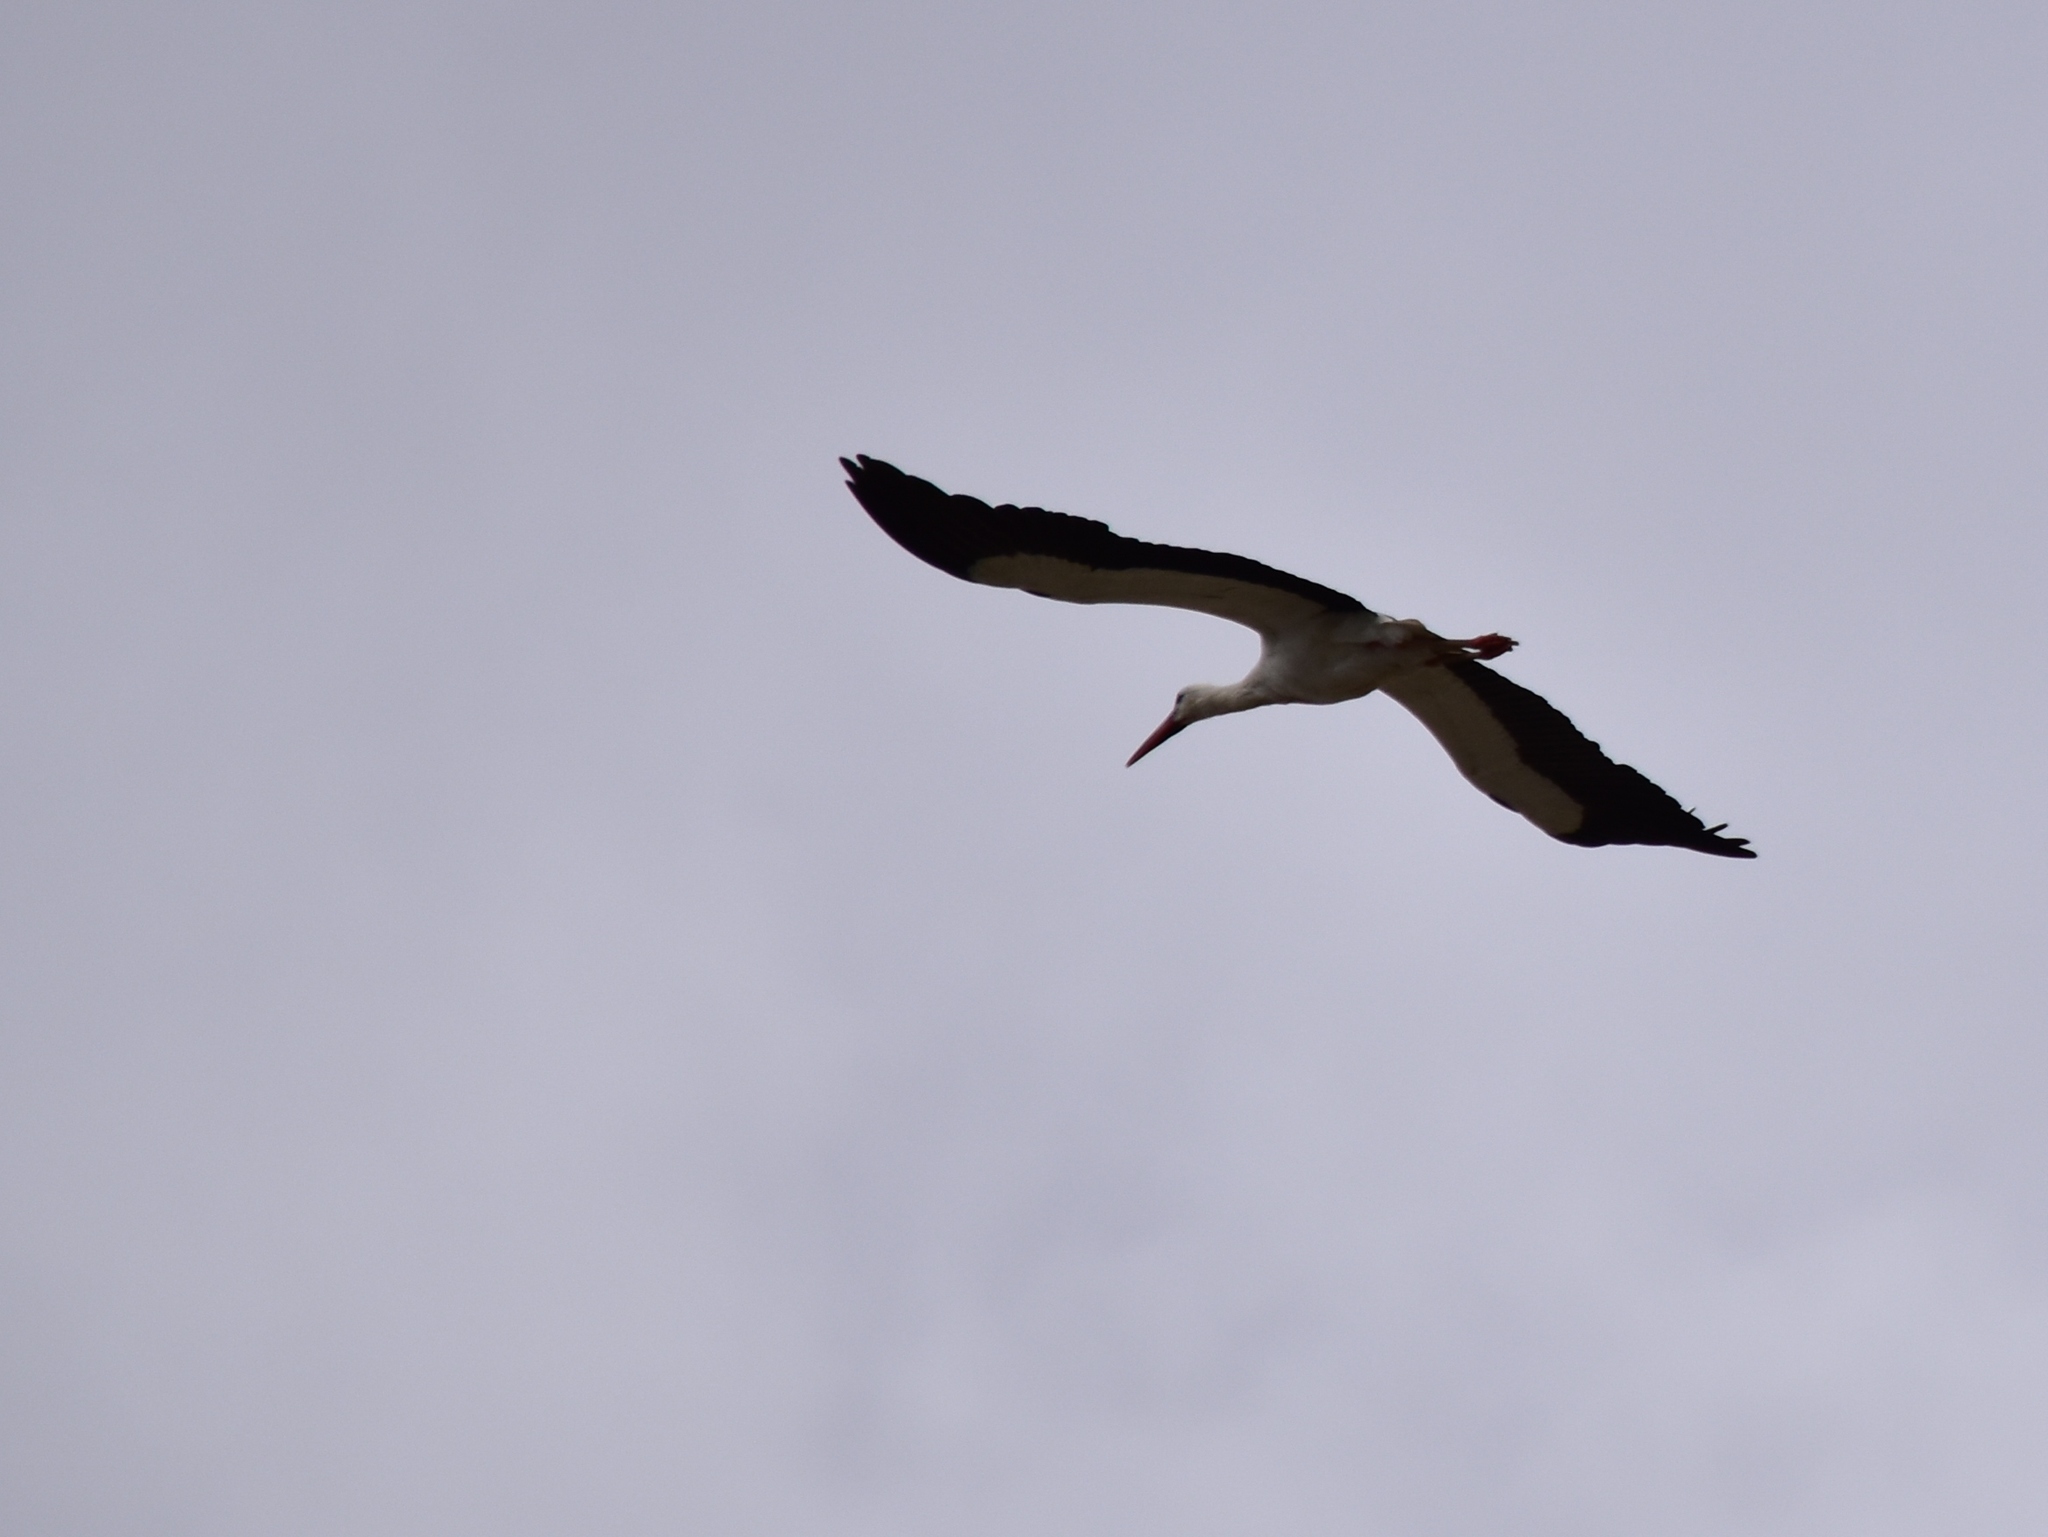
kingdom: Animalia
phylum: Chordata
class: Aves
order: Ciconiiformes
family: Ciconiidae
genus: Ciconia
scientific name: Ciconia ciconia
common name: White stork
